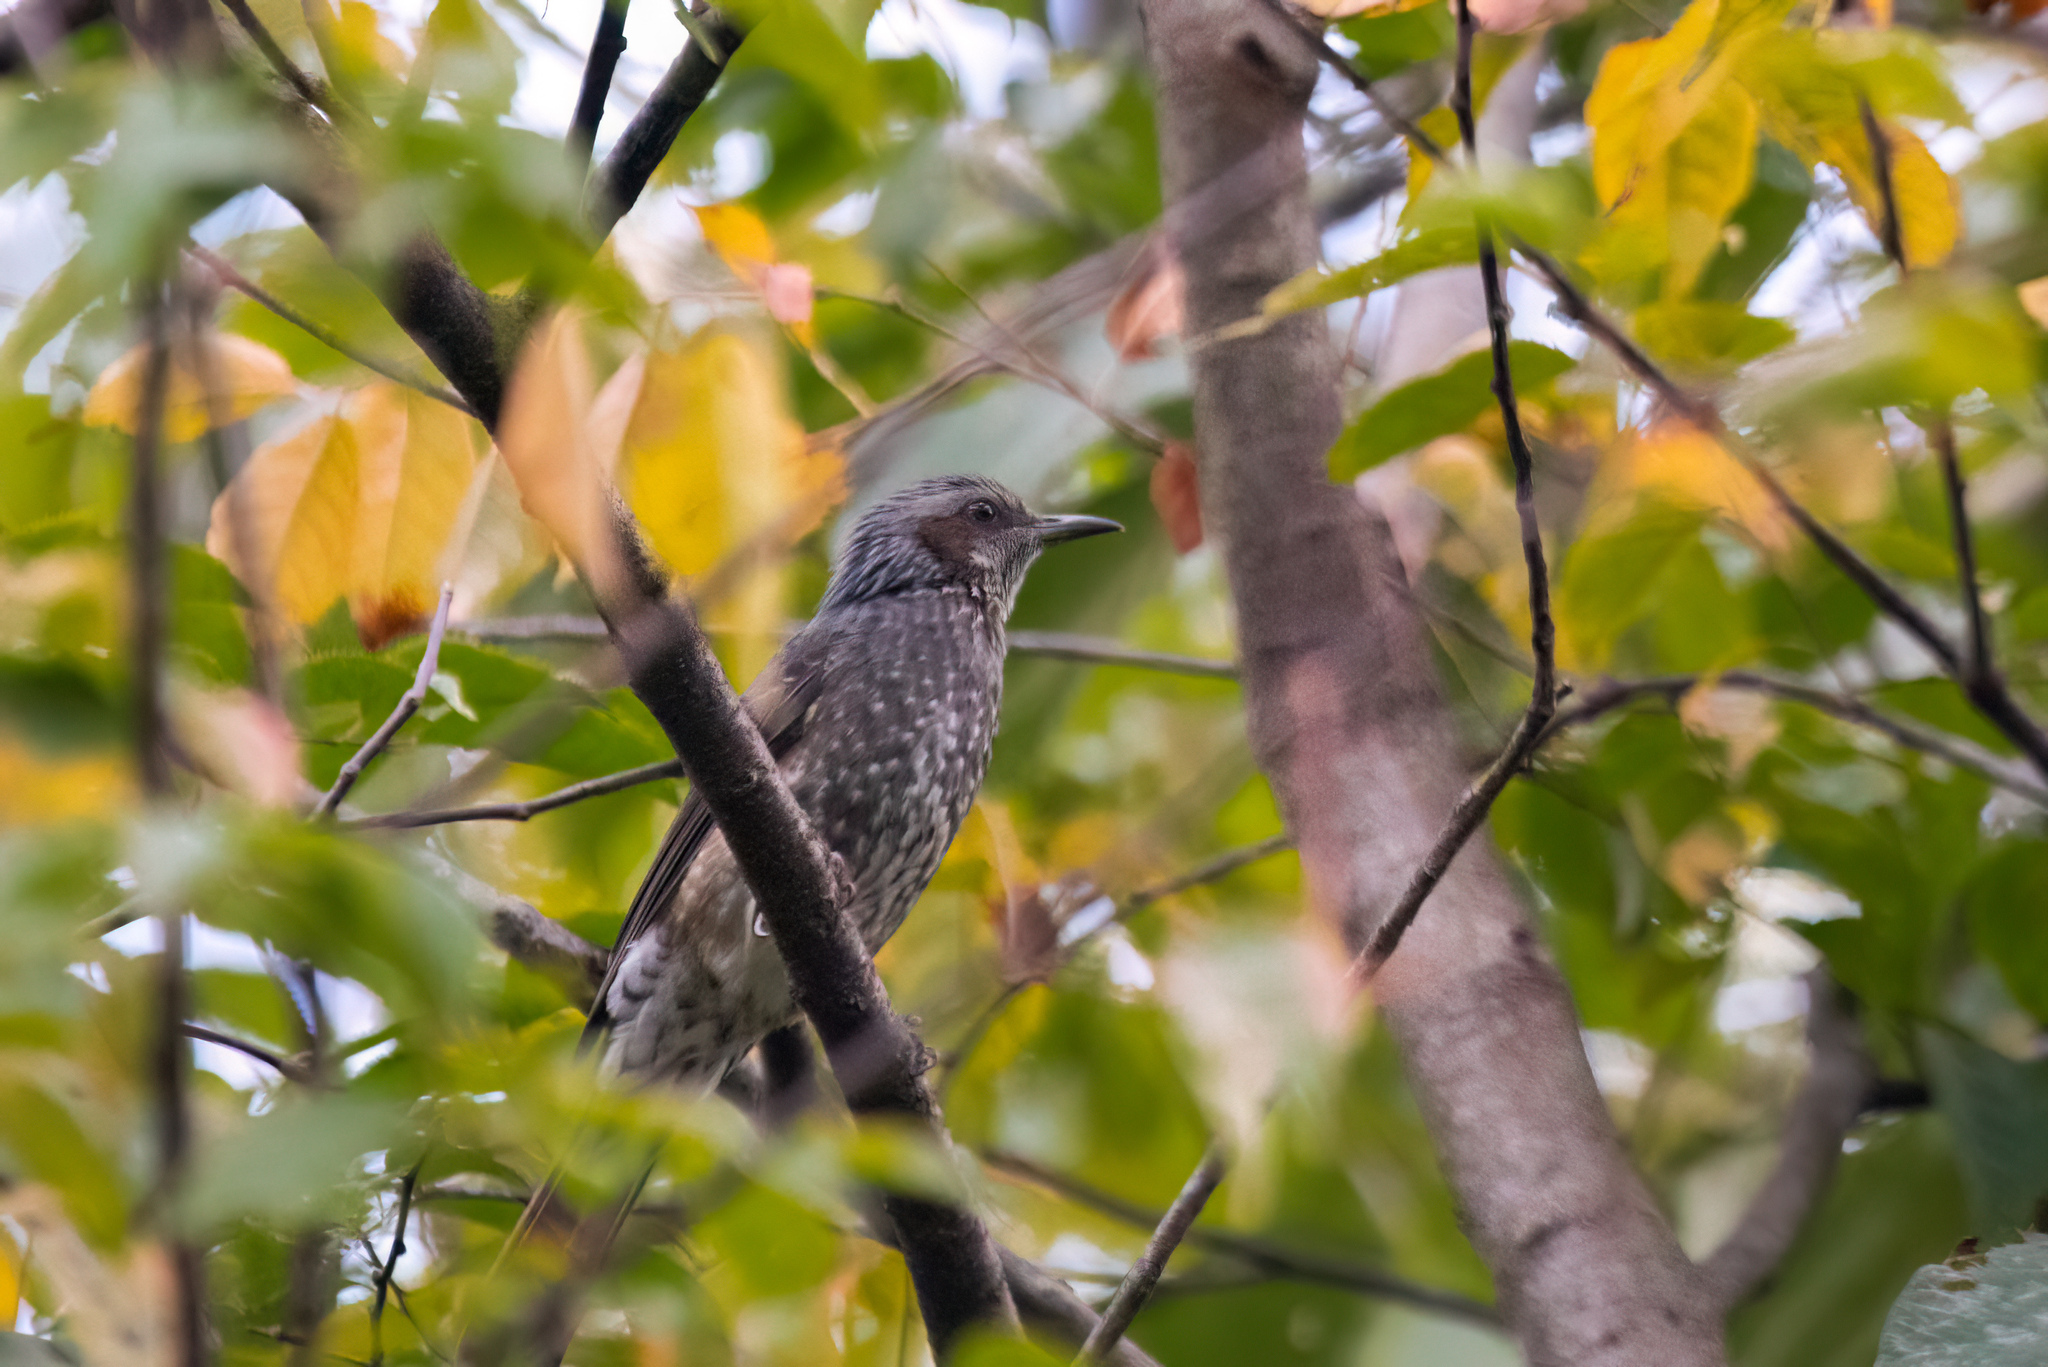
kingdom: Animalia
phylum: Chordata
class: Aves
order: Passeriformes
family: Pycnonotidae
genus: Hypsipetes
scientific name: Hypsipetes amaurotis
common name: Brown-eared bulbul
